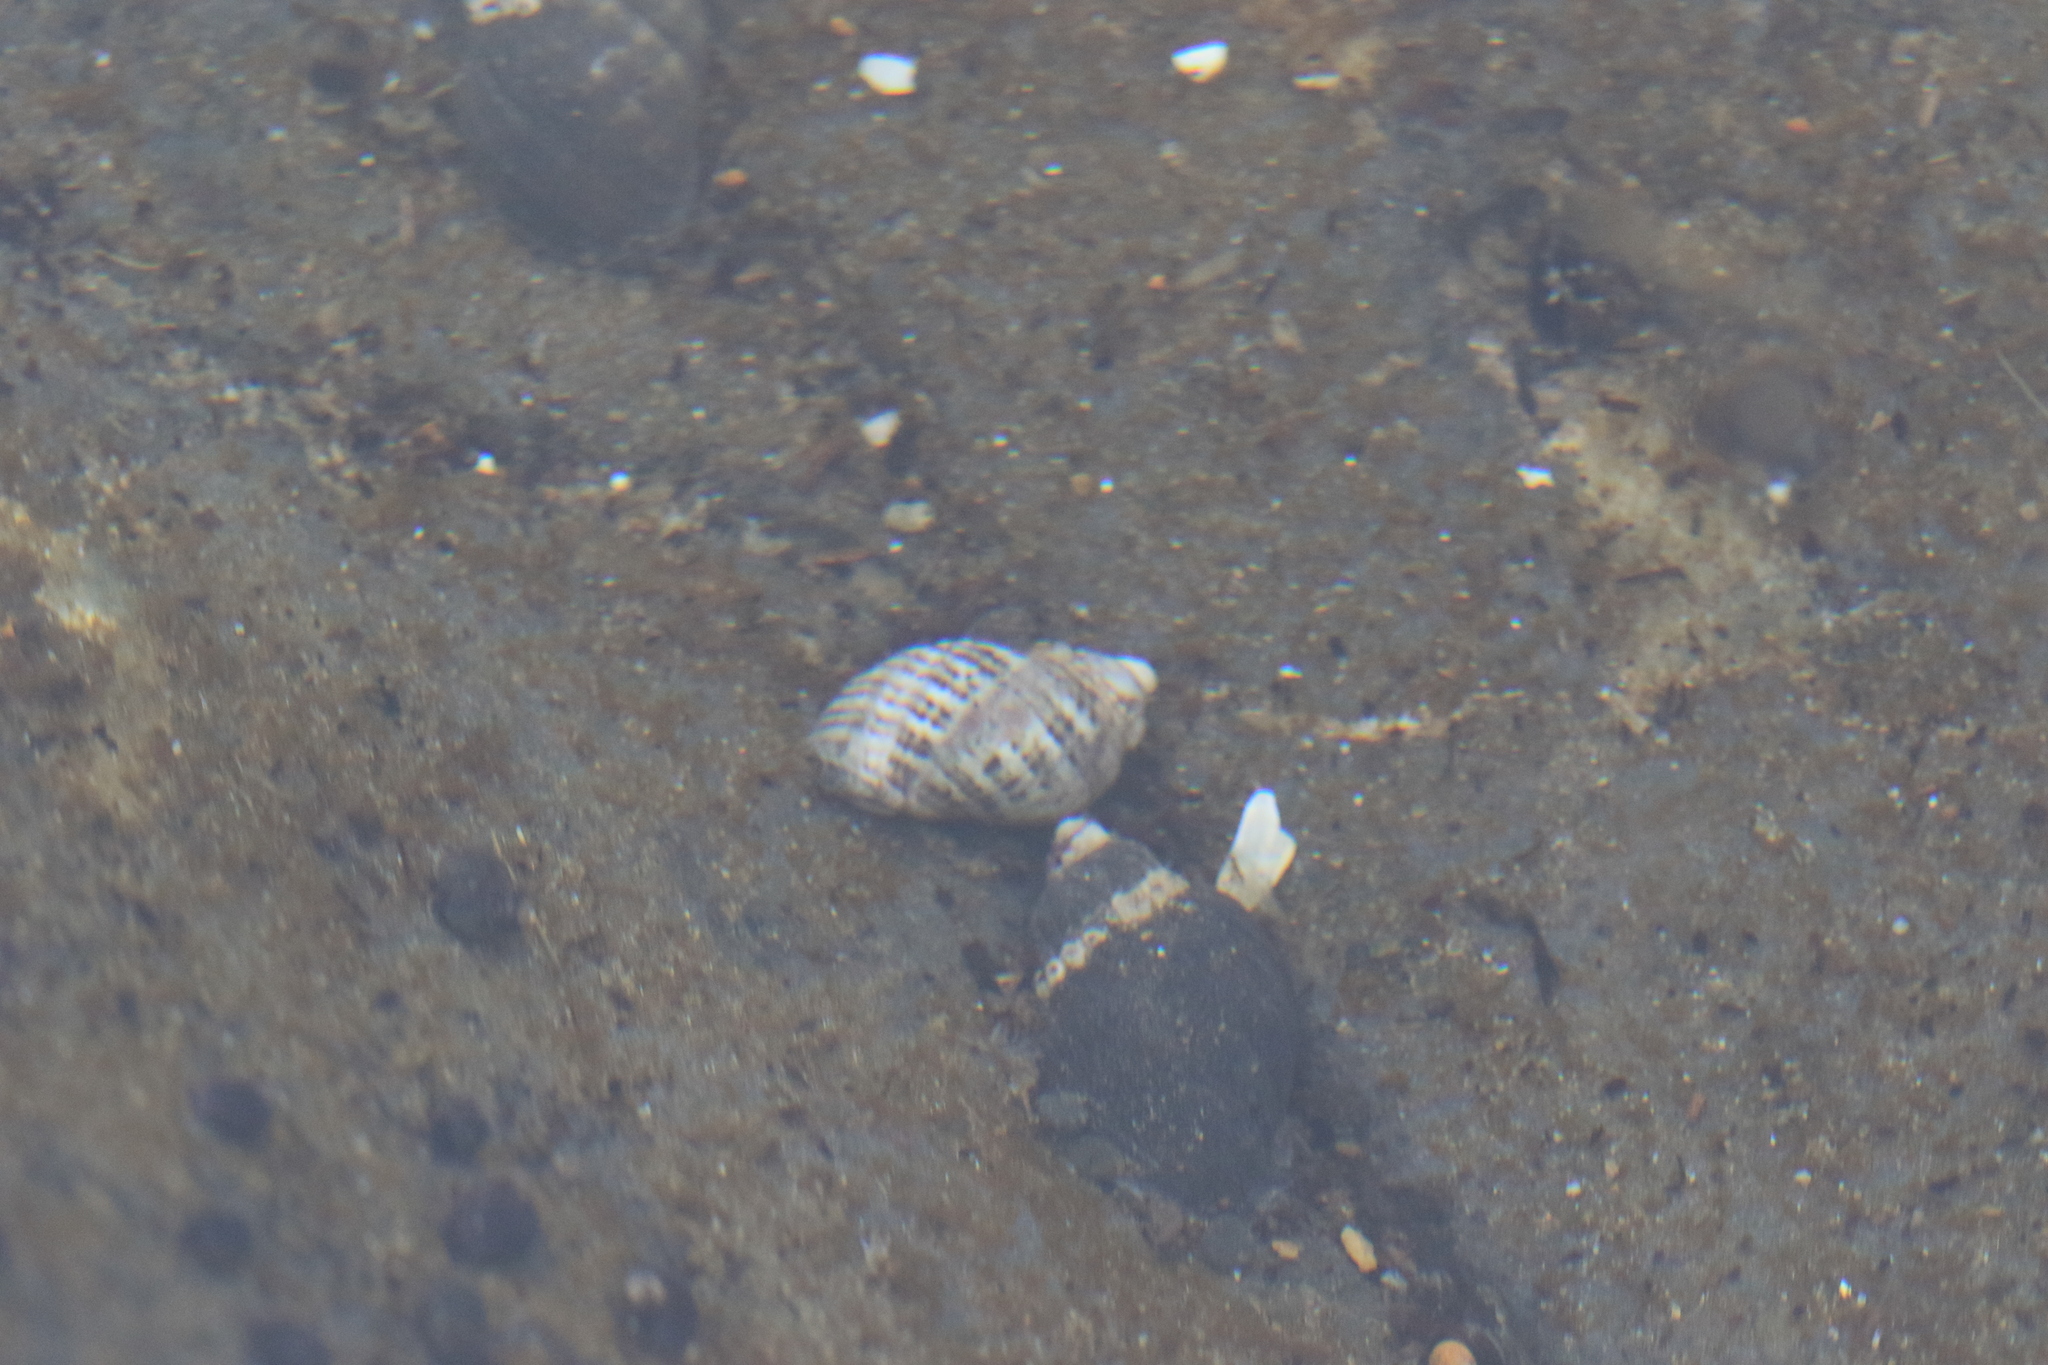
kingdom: Animalia
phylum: Mollusca
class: Gastropoda
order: Neogastropoda
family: Muricidae
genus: Nucella
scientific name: Nucella ostrina
